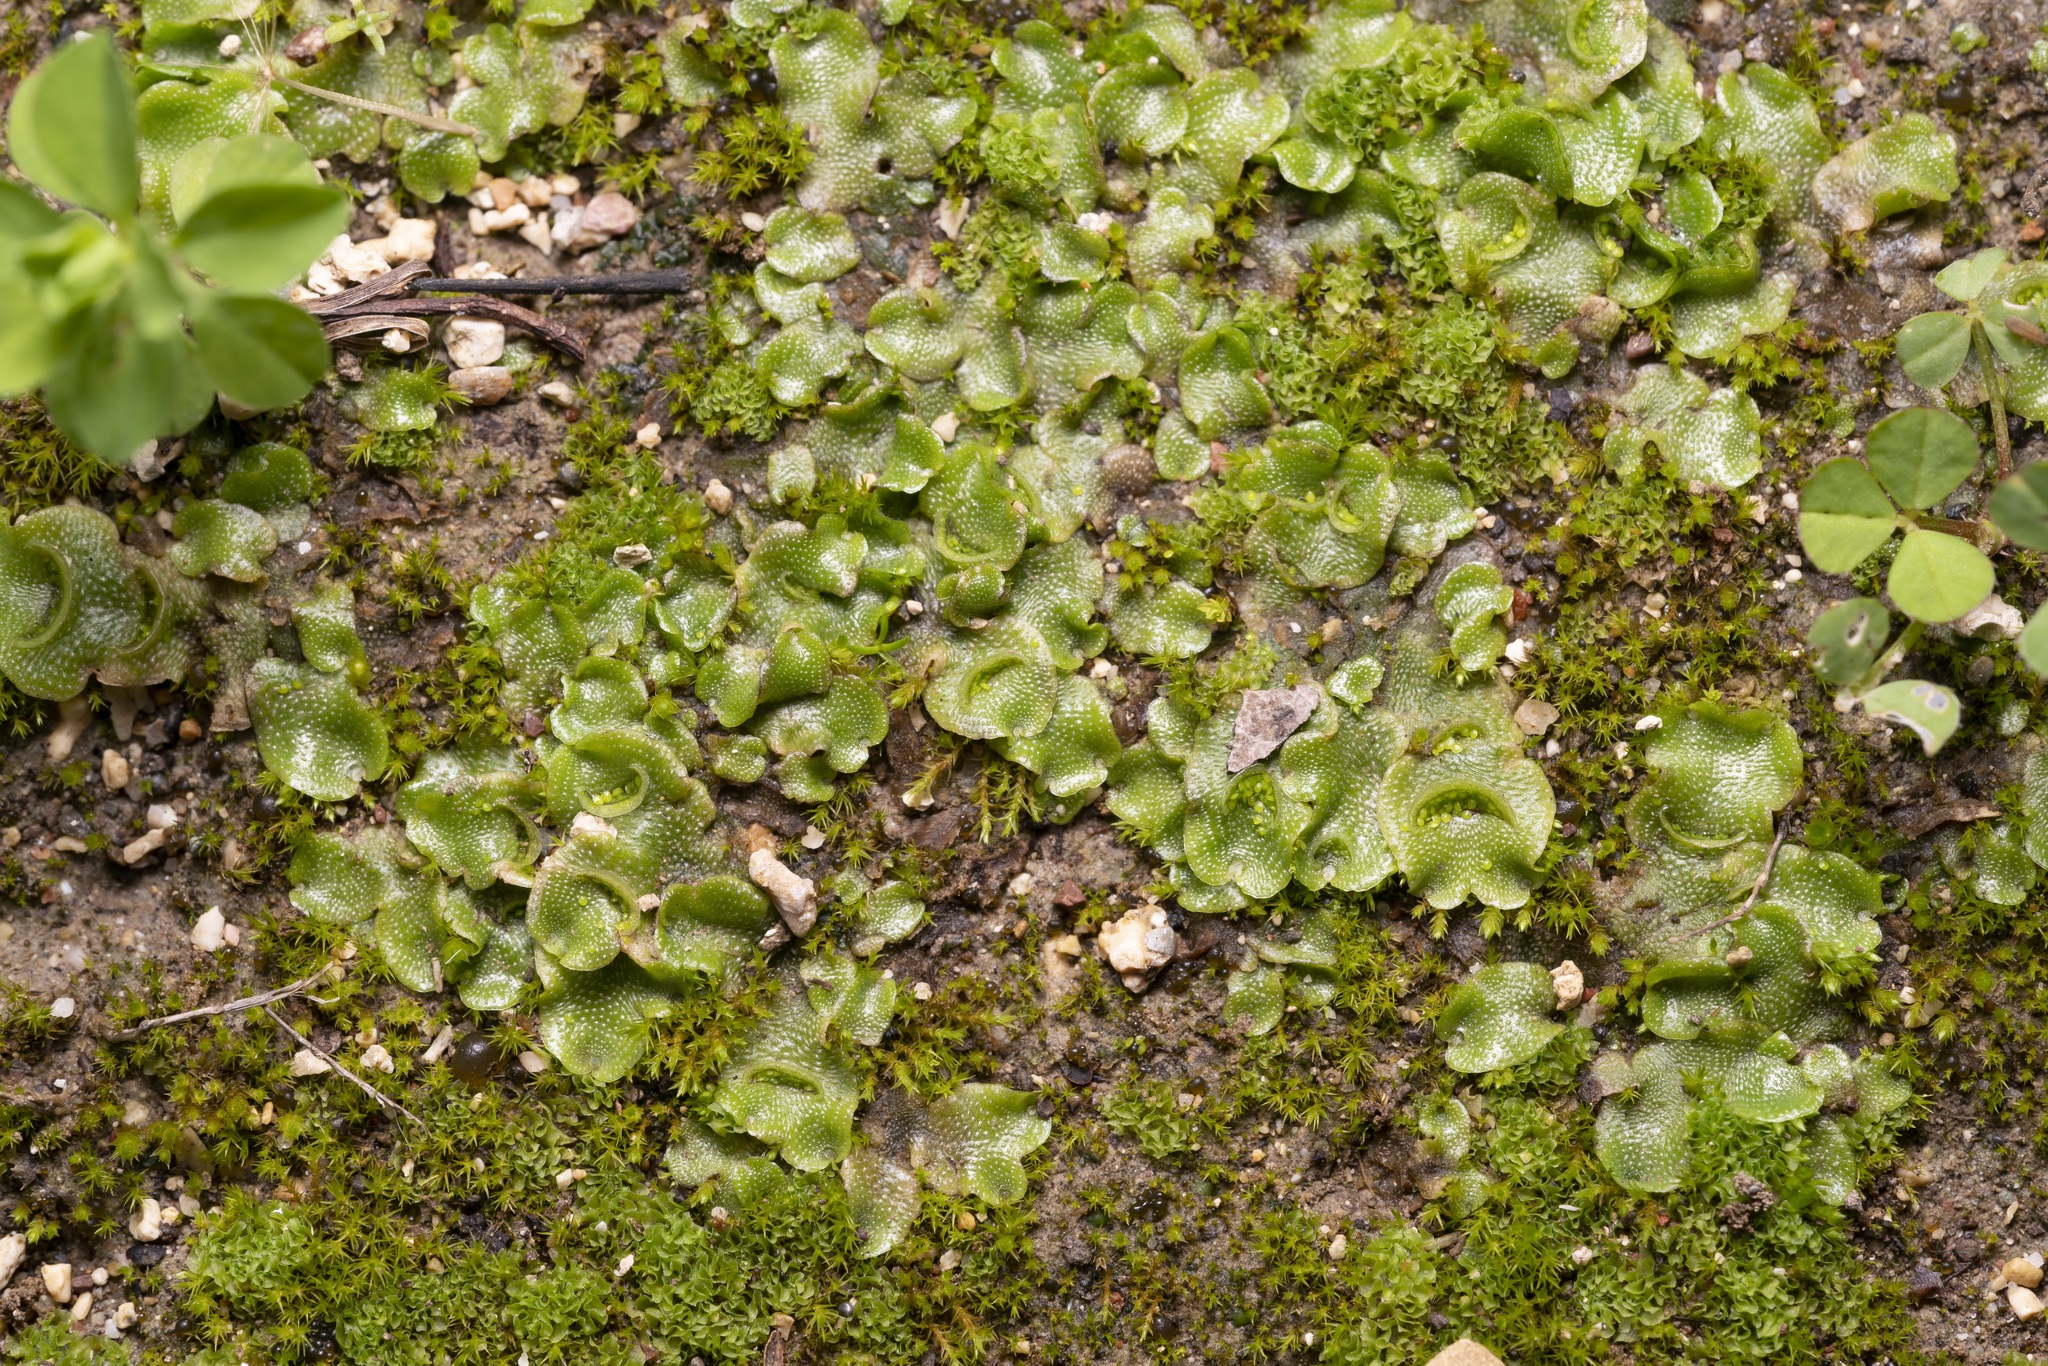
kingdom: Plantae
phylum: Marchantiophyta
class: Marchantiopsida
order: Lunulariales
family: Lunulariaceae
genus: Lunularia
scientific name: Lunularia cruciata
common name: Crescent-cup liverwort
